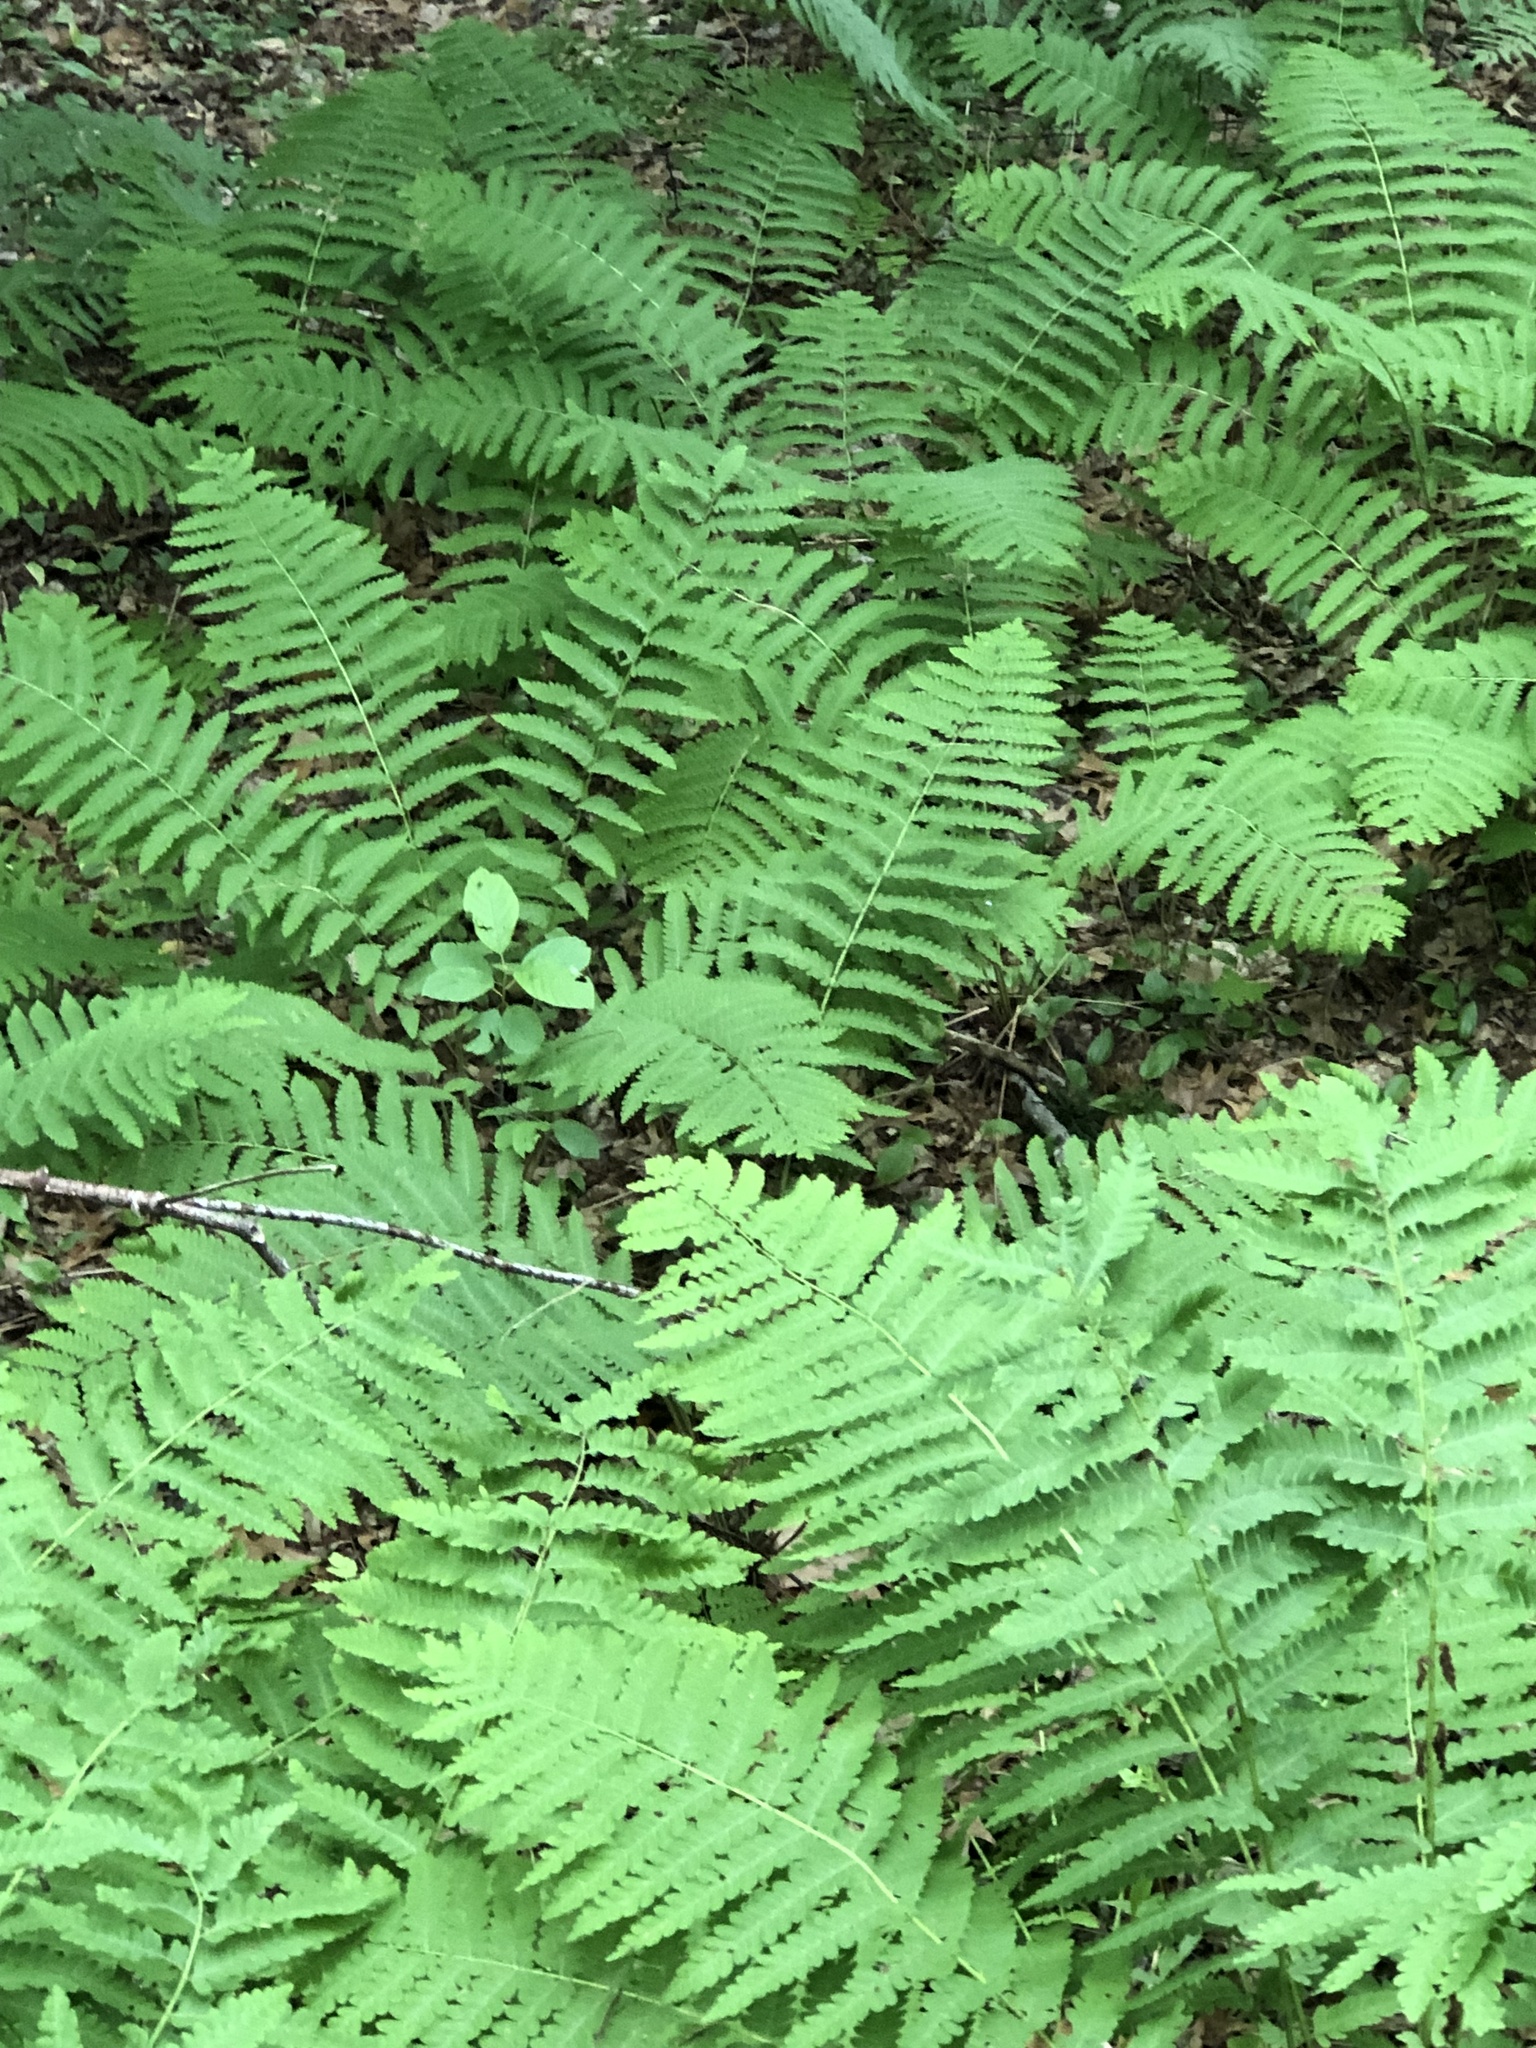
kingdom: Plantae
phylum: Tracheophyta
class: Polypodiopsida
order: Osmundales
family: Osmundaceae
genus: Claytosmunda
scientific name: Claytosmunda claytoniana
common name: Clayton's fern
